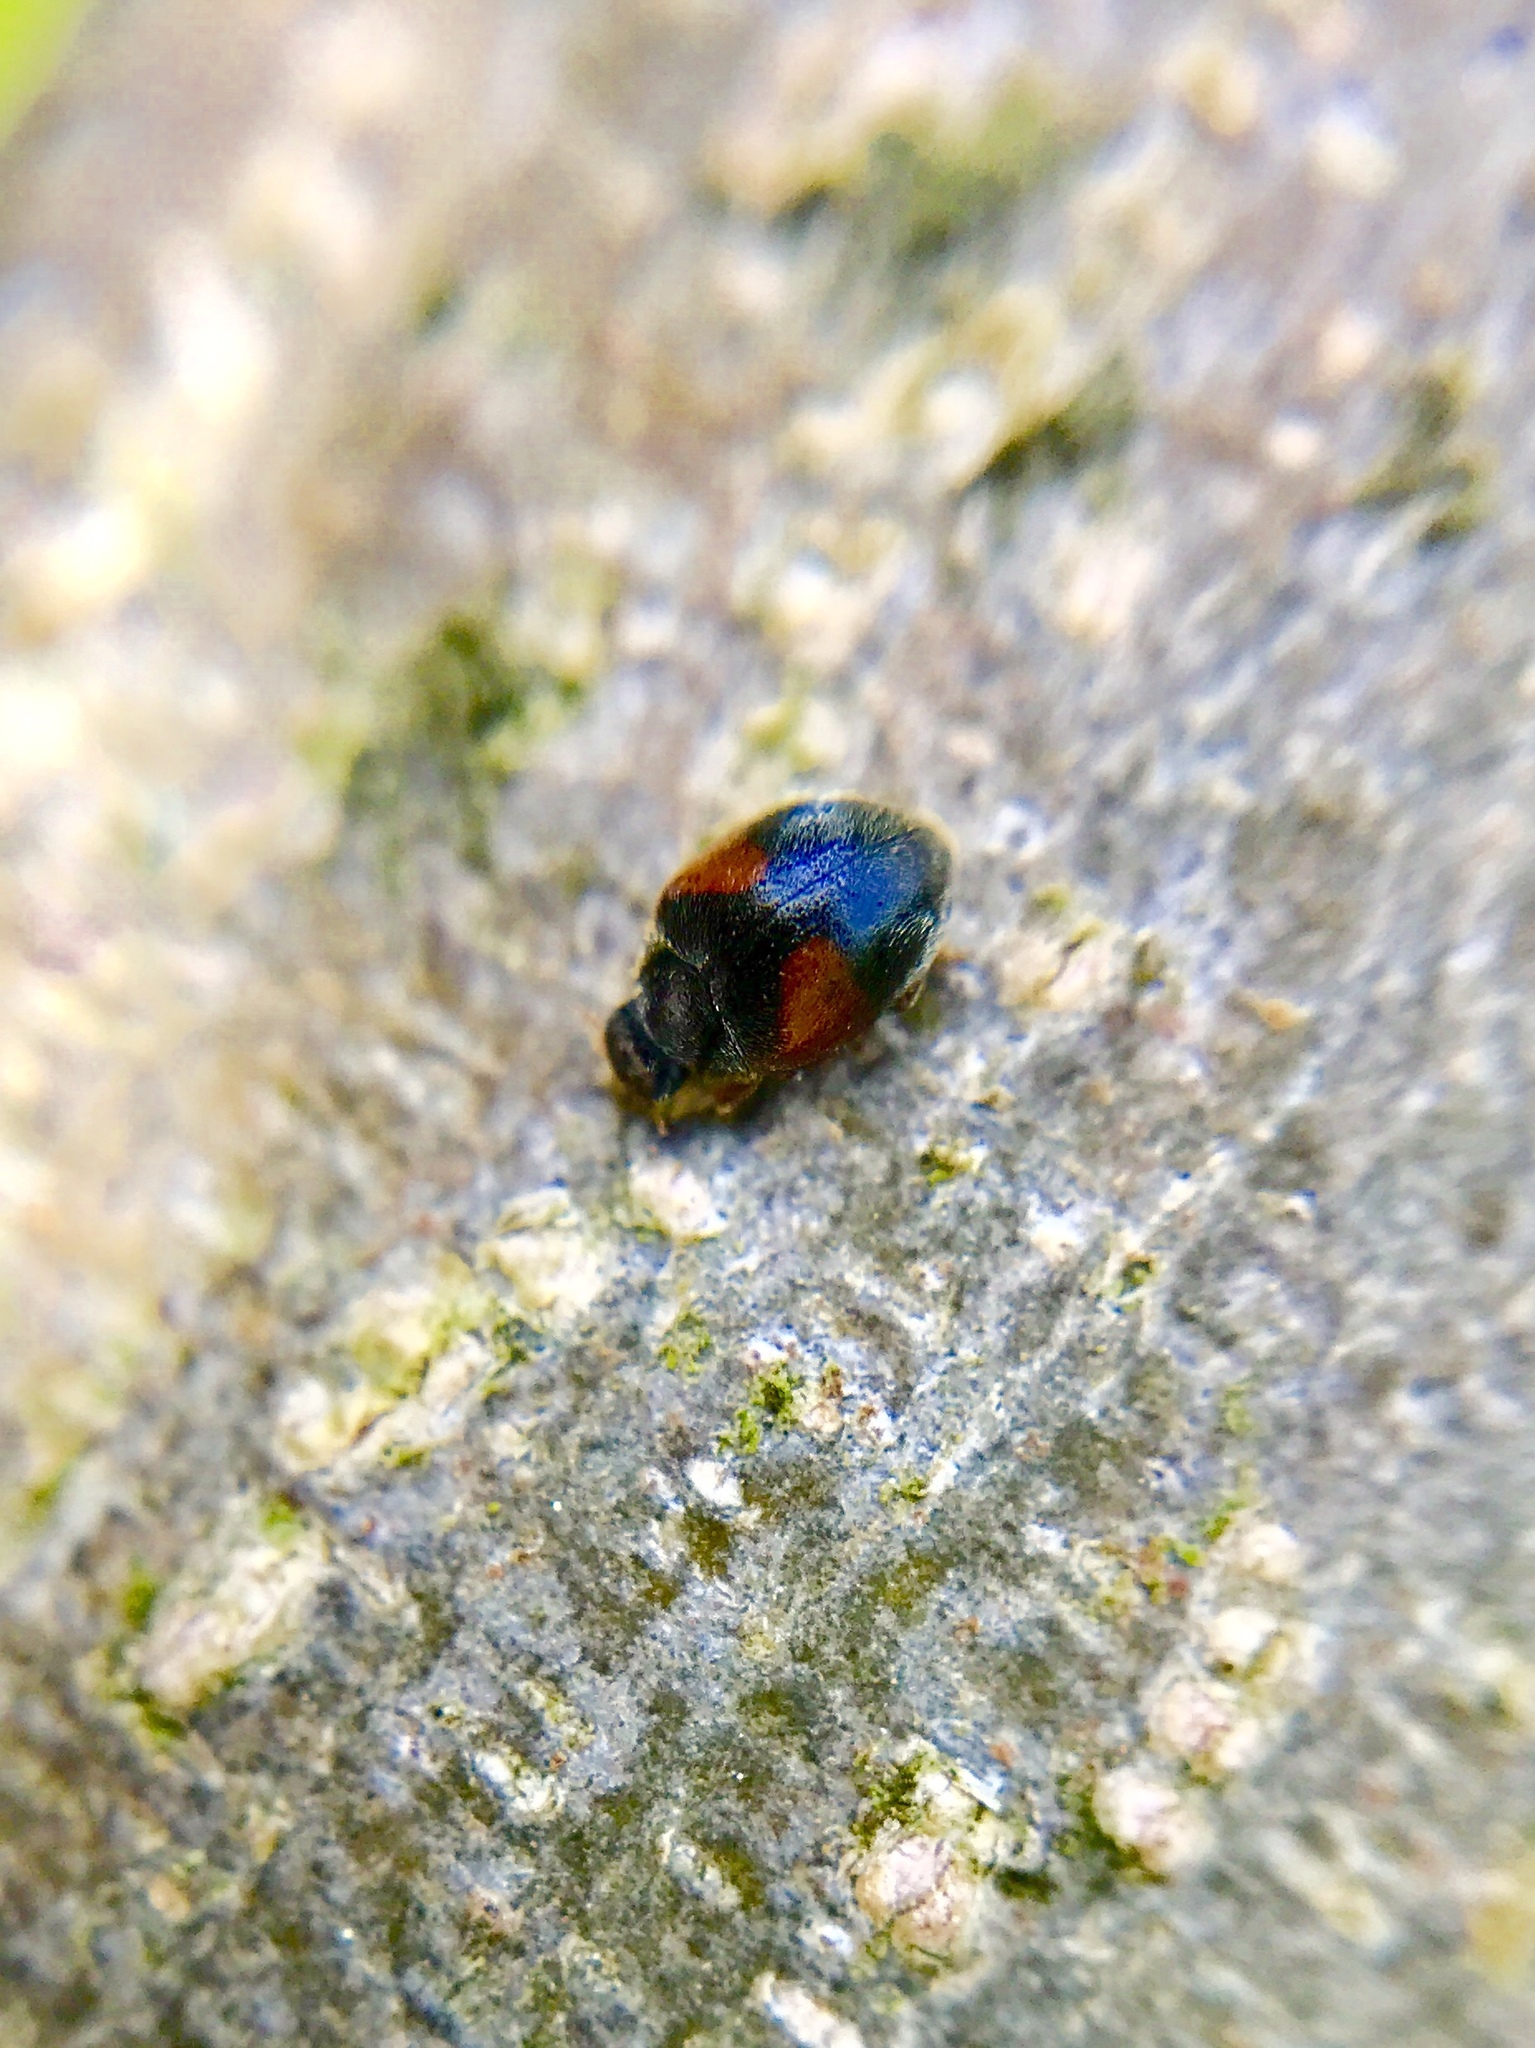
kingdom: Animalia
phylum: Arthropoda
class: Insecta
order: Coleoptera
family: Coccinellidae
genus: Scymnus
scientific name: Scymnus interruptus
